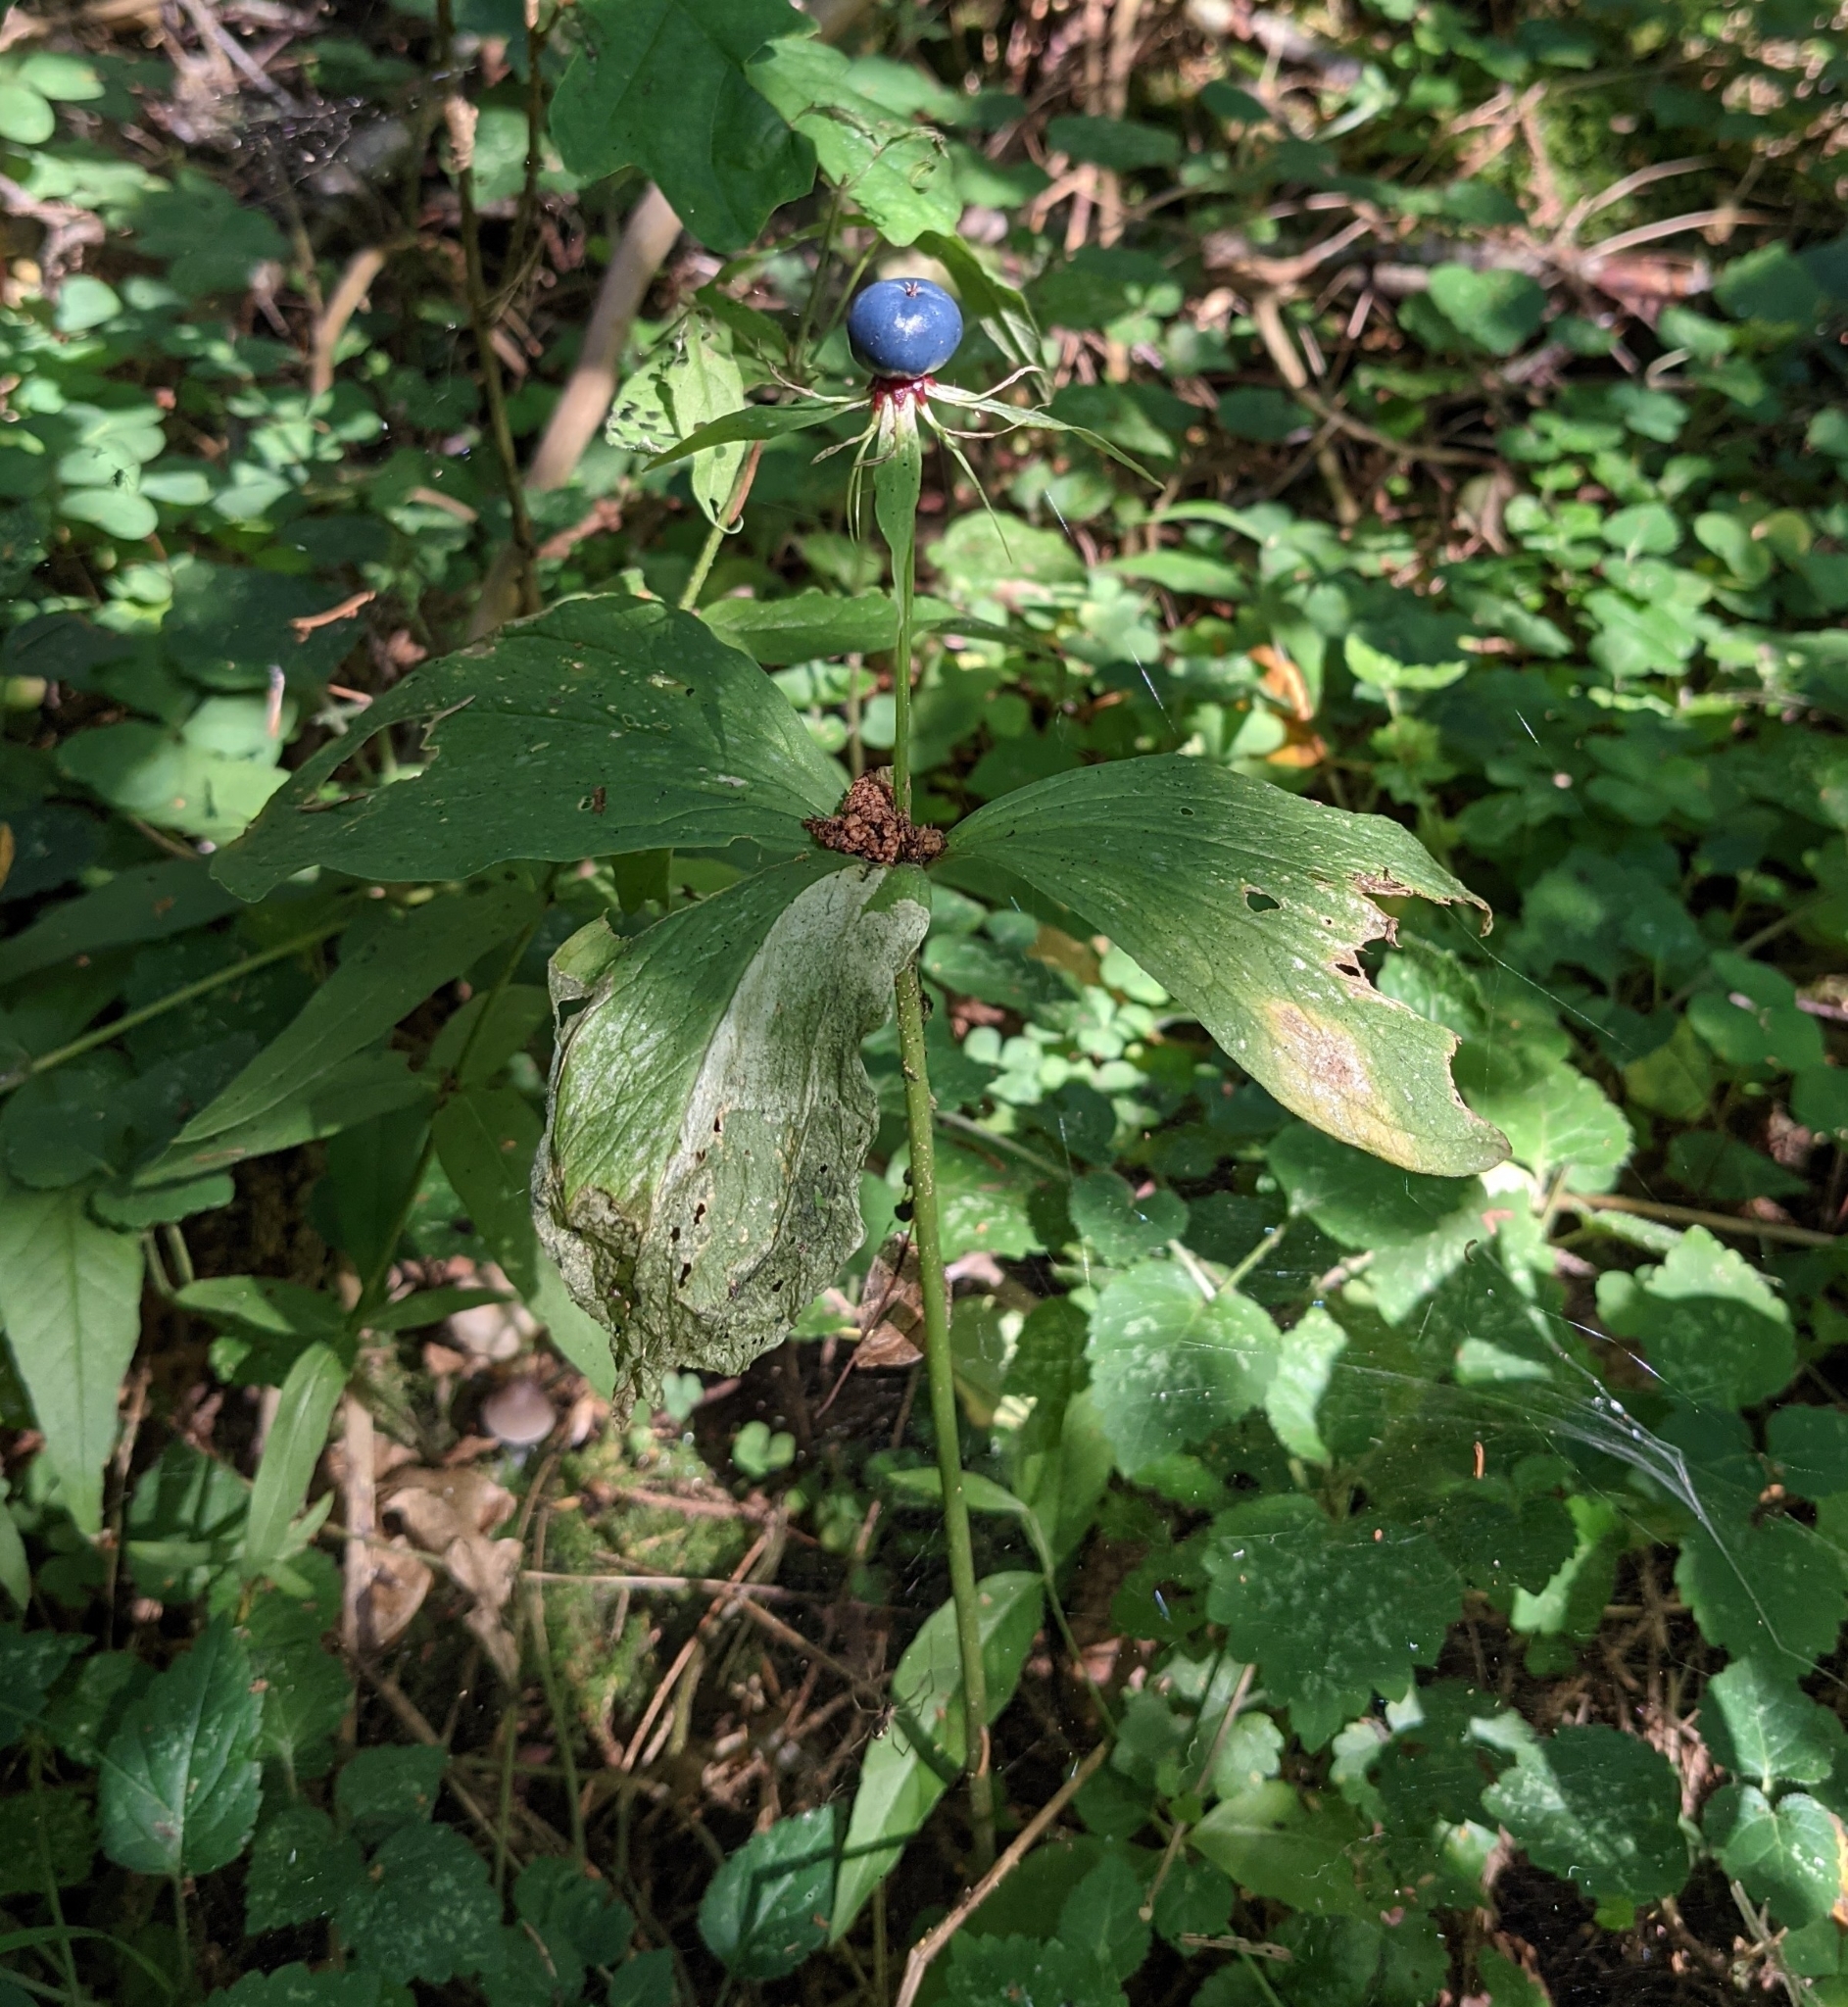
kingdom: Plantae
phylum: Tracheophyta
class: Liliopsida
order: Liliales
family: Melanthiaceae
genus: Paris
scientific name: Paris quadrifolia
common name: Herb-paris
